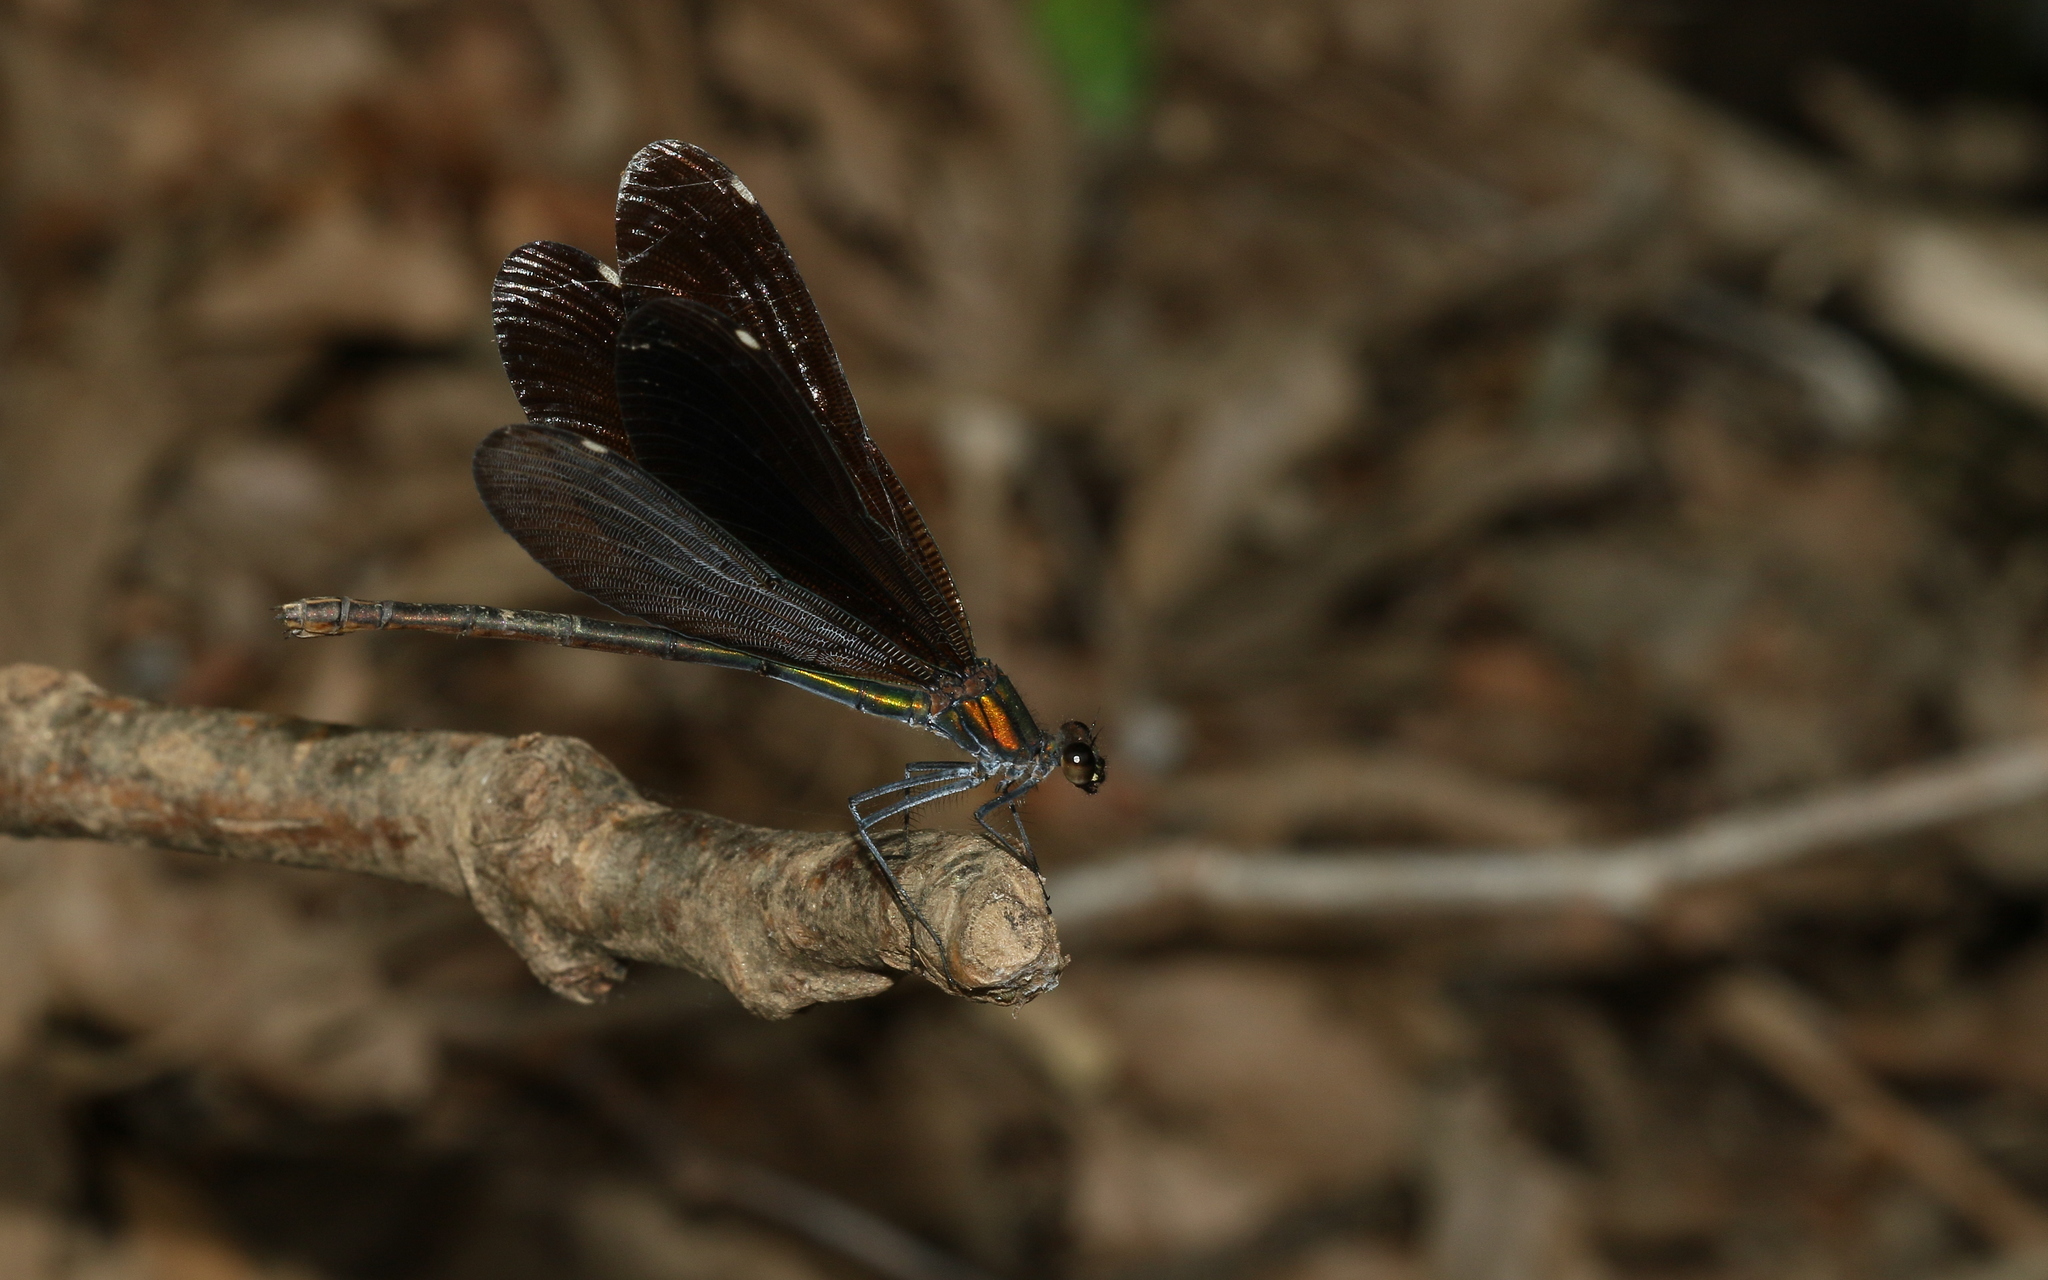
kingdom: Animalia
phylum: Arthropoda
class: Insecta
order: Odonata
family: Calopterygidae
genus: Calopteryx
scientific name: Calopteryx virgo
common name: Beautiful demoiselle
